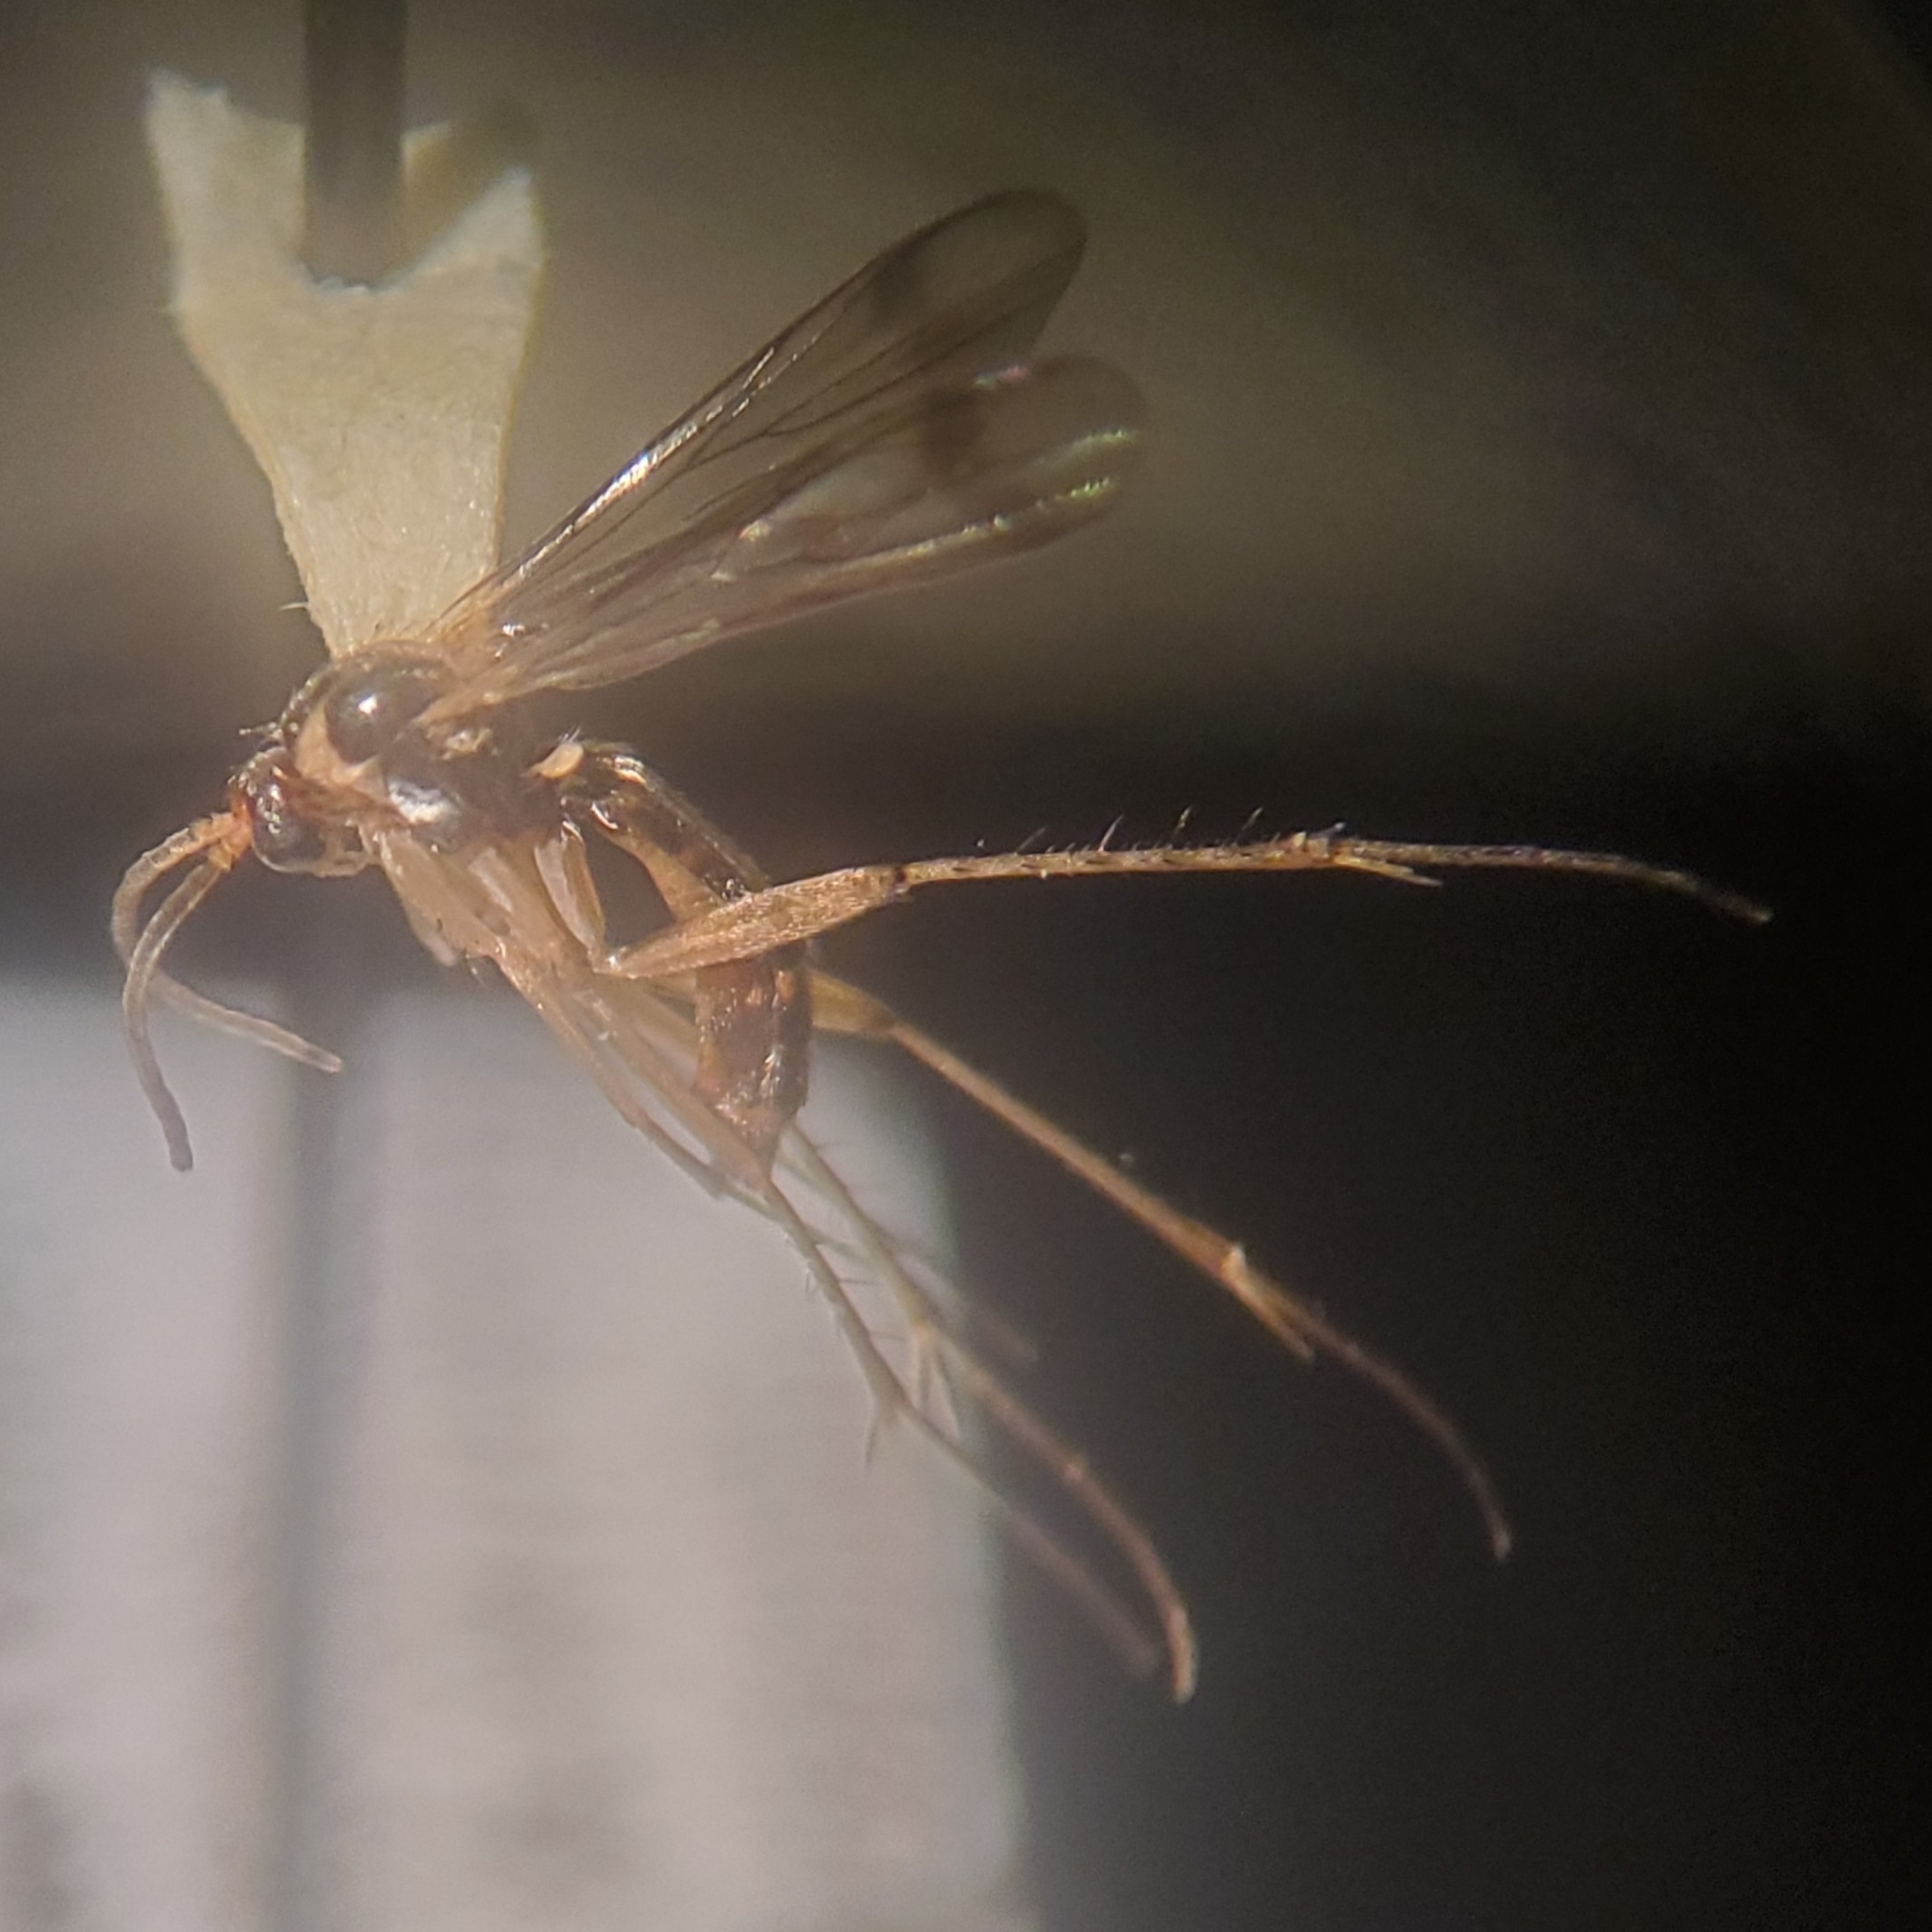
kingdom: Animalia
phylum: Arthropoda
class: Insecta
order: Diptera
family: Mycetophilidae
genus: Leia
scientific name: Leia varia
